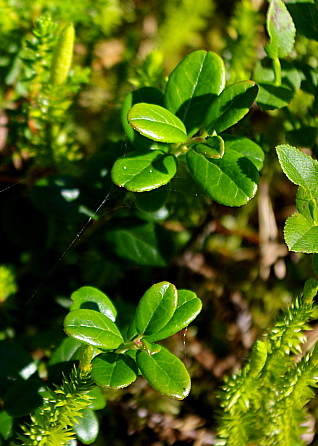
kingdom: Plantae
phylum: Tracheophyta
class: Magnoliopsida
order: Ericales
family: Ericaceae
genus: Vaccinium
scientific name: Vaccinium vitis-idaea
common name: Cowberry
